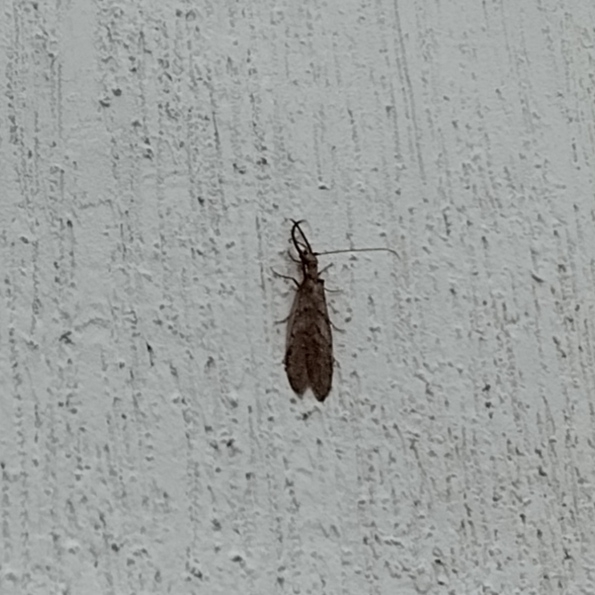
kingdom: Animalia
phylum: Arthropoda
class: Insecta
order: Megaloptera
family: Corydalidae
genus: Corydalus
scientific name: Corydalus
